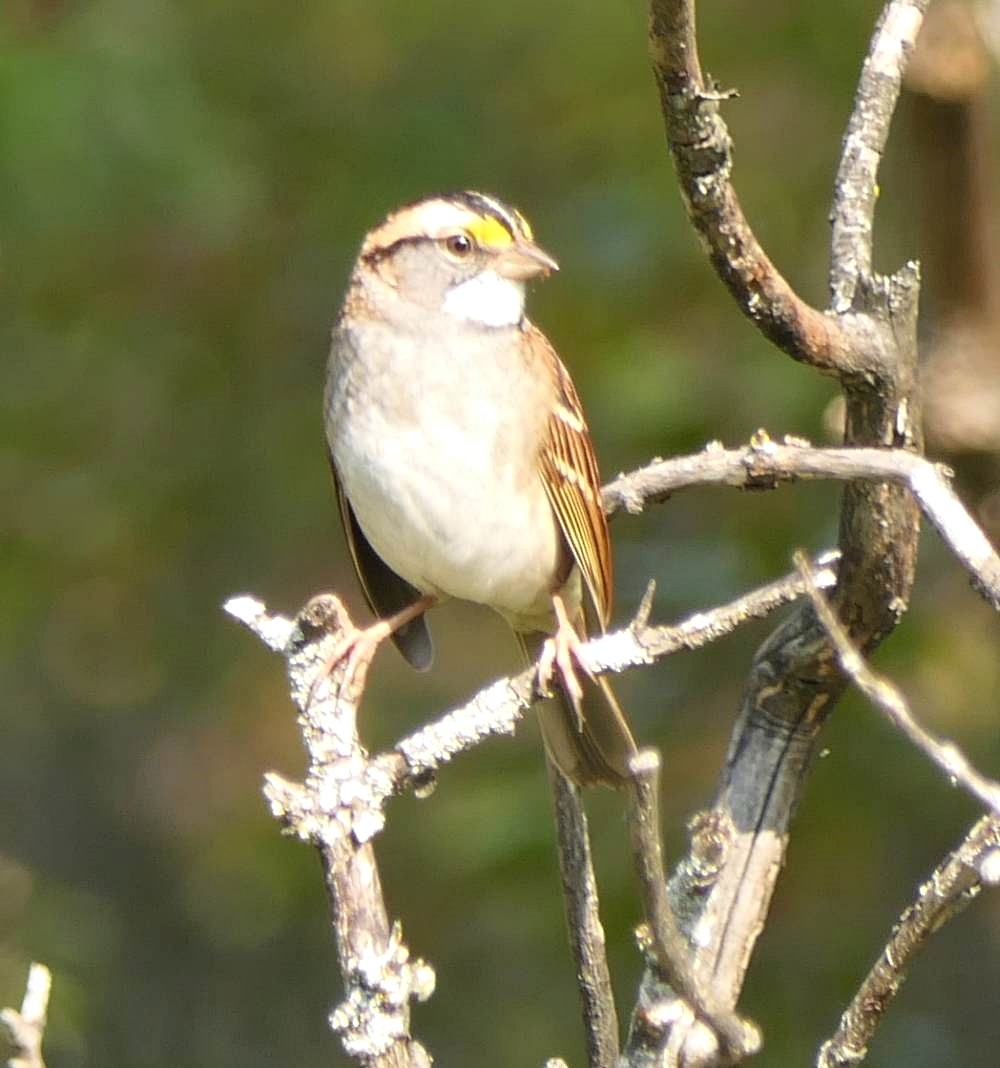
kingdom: Animalia
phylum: Chordata
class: Aves
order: Passeriformes
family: Passerellidae
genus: Zonotrichia
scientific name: Zonotrichia albicollis
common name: White-throated sparrow
